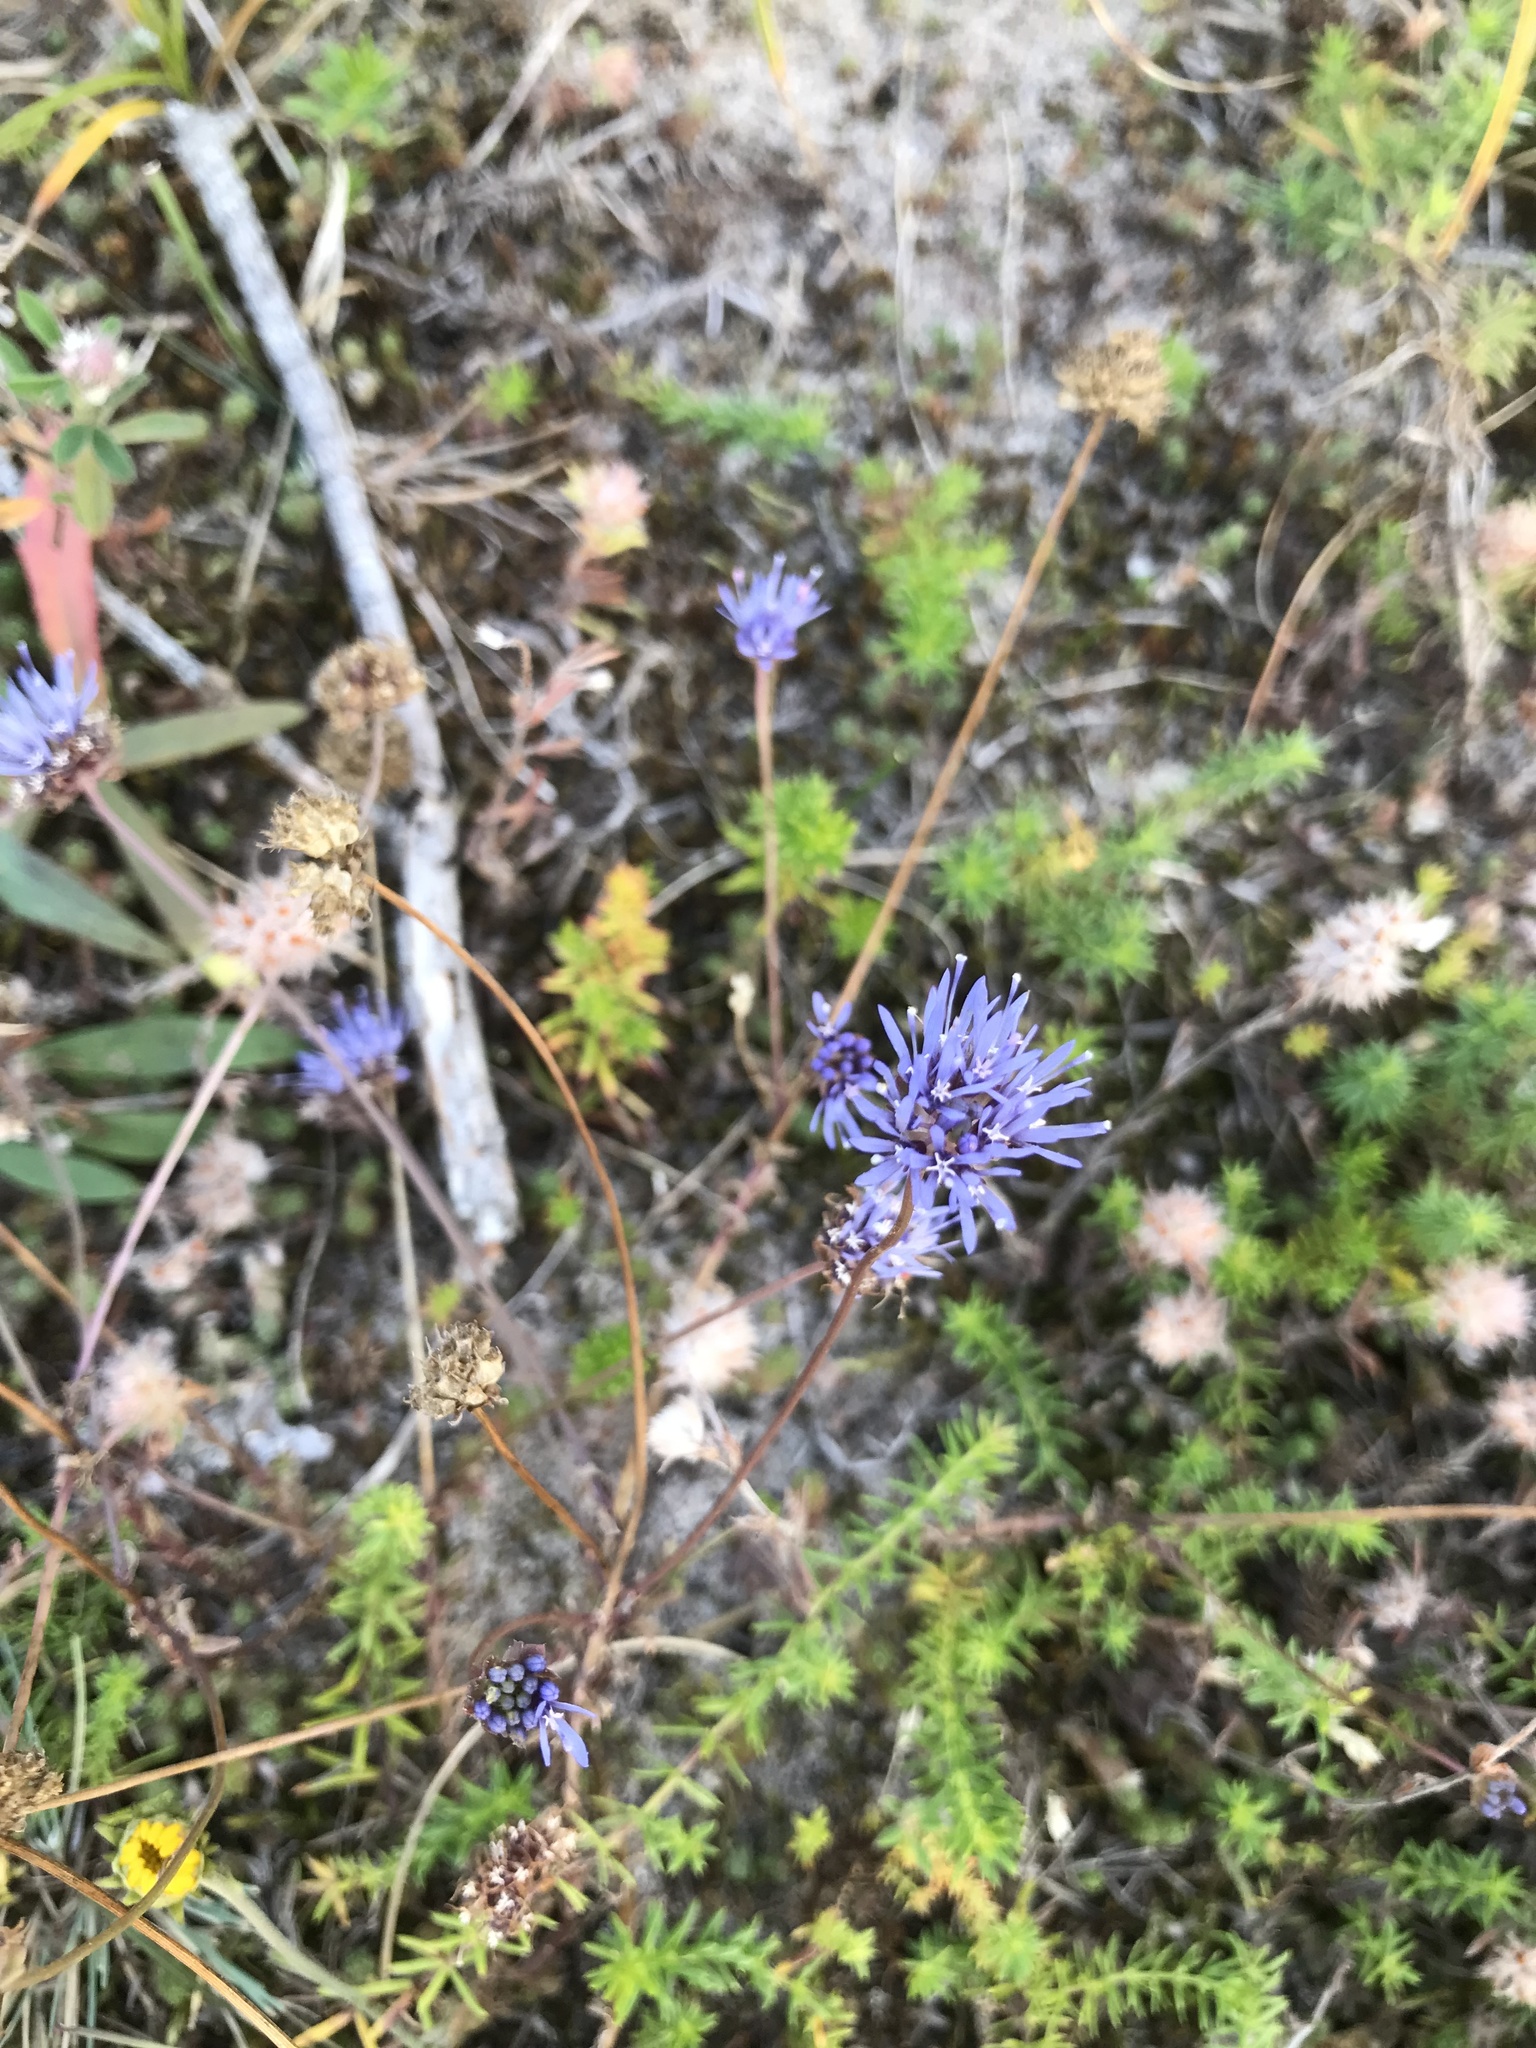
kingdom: Plantae
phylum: Tracheophyta
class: Magnoliopsida
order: Asterales
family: Campanulaceae
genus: Jasione
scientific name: Jasione montana
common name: Sheep's-bit
